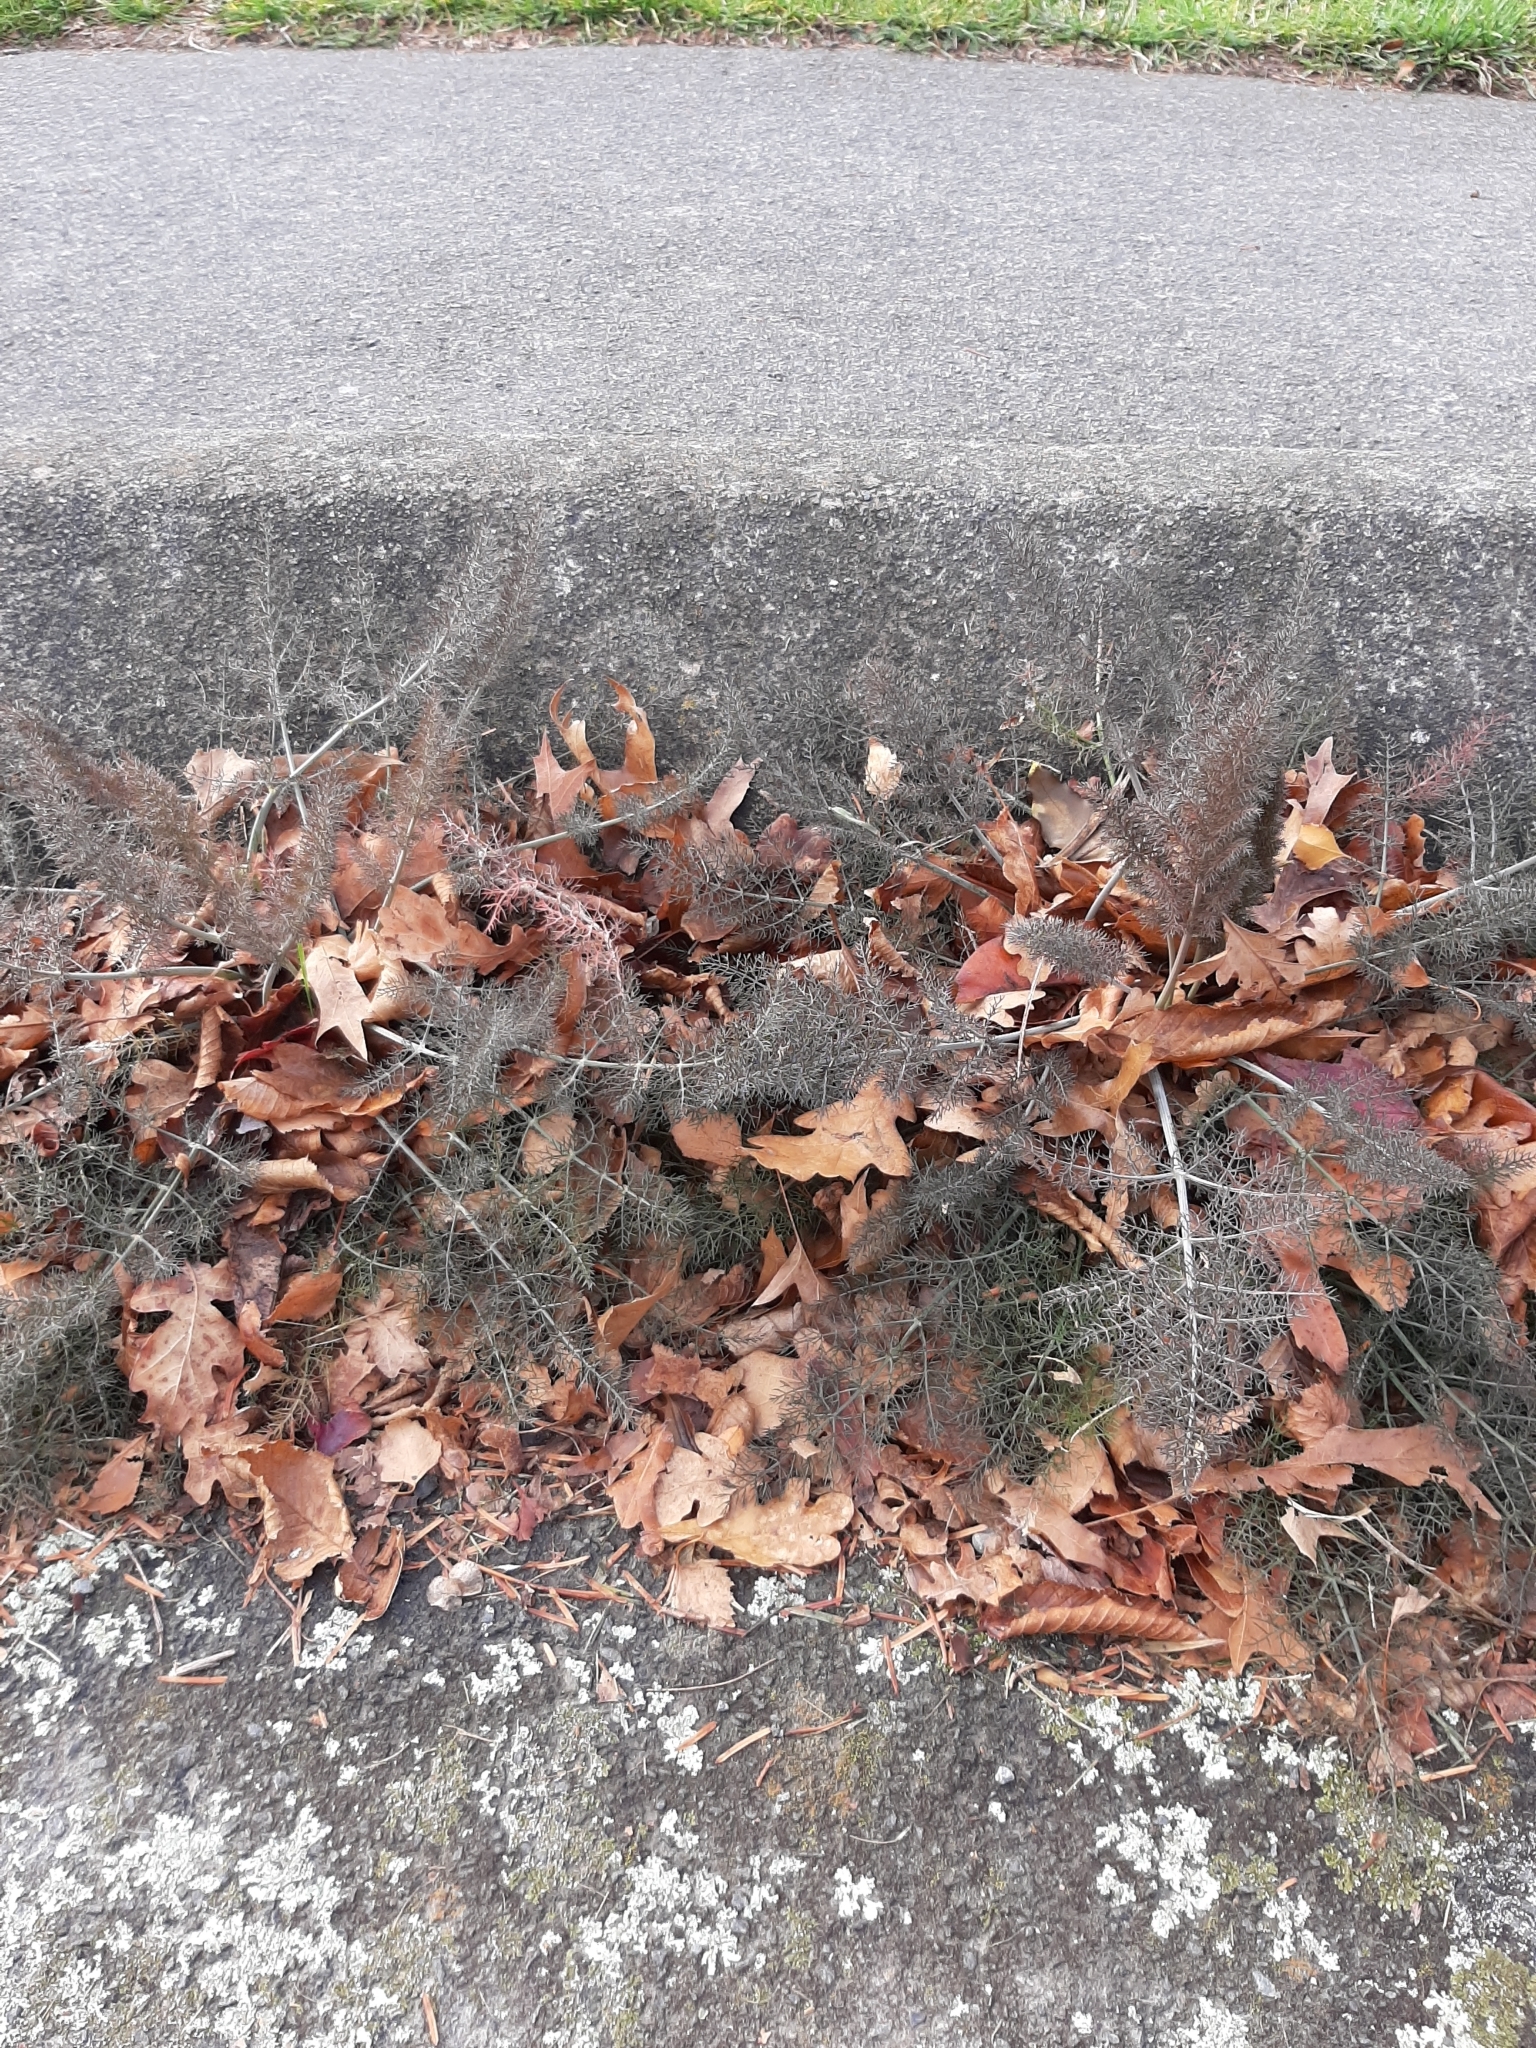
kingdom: Plantae
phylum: Tracheophyta
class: Magnoliopsida
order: Apiales
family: Apiaceae
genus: Foeniculum
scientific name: Foeniculum vulgare
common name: Fennel
